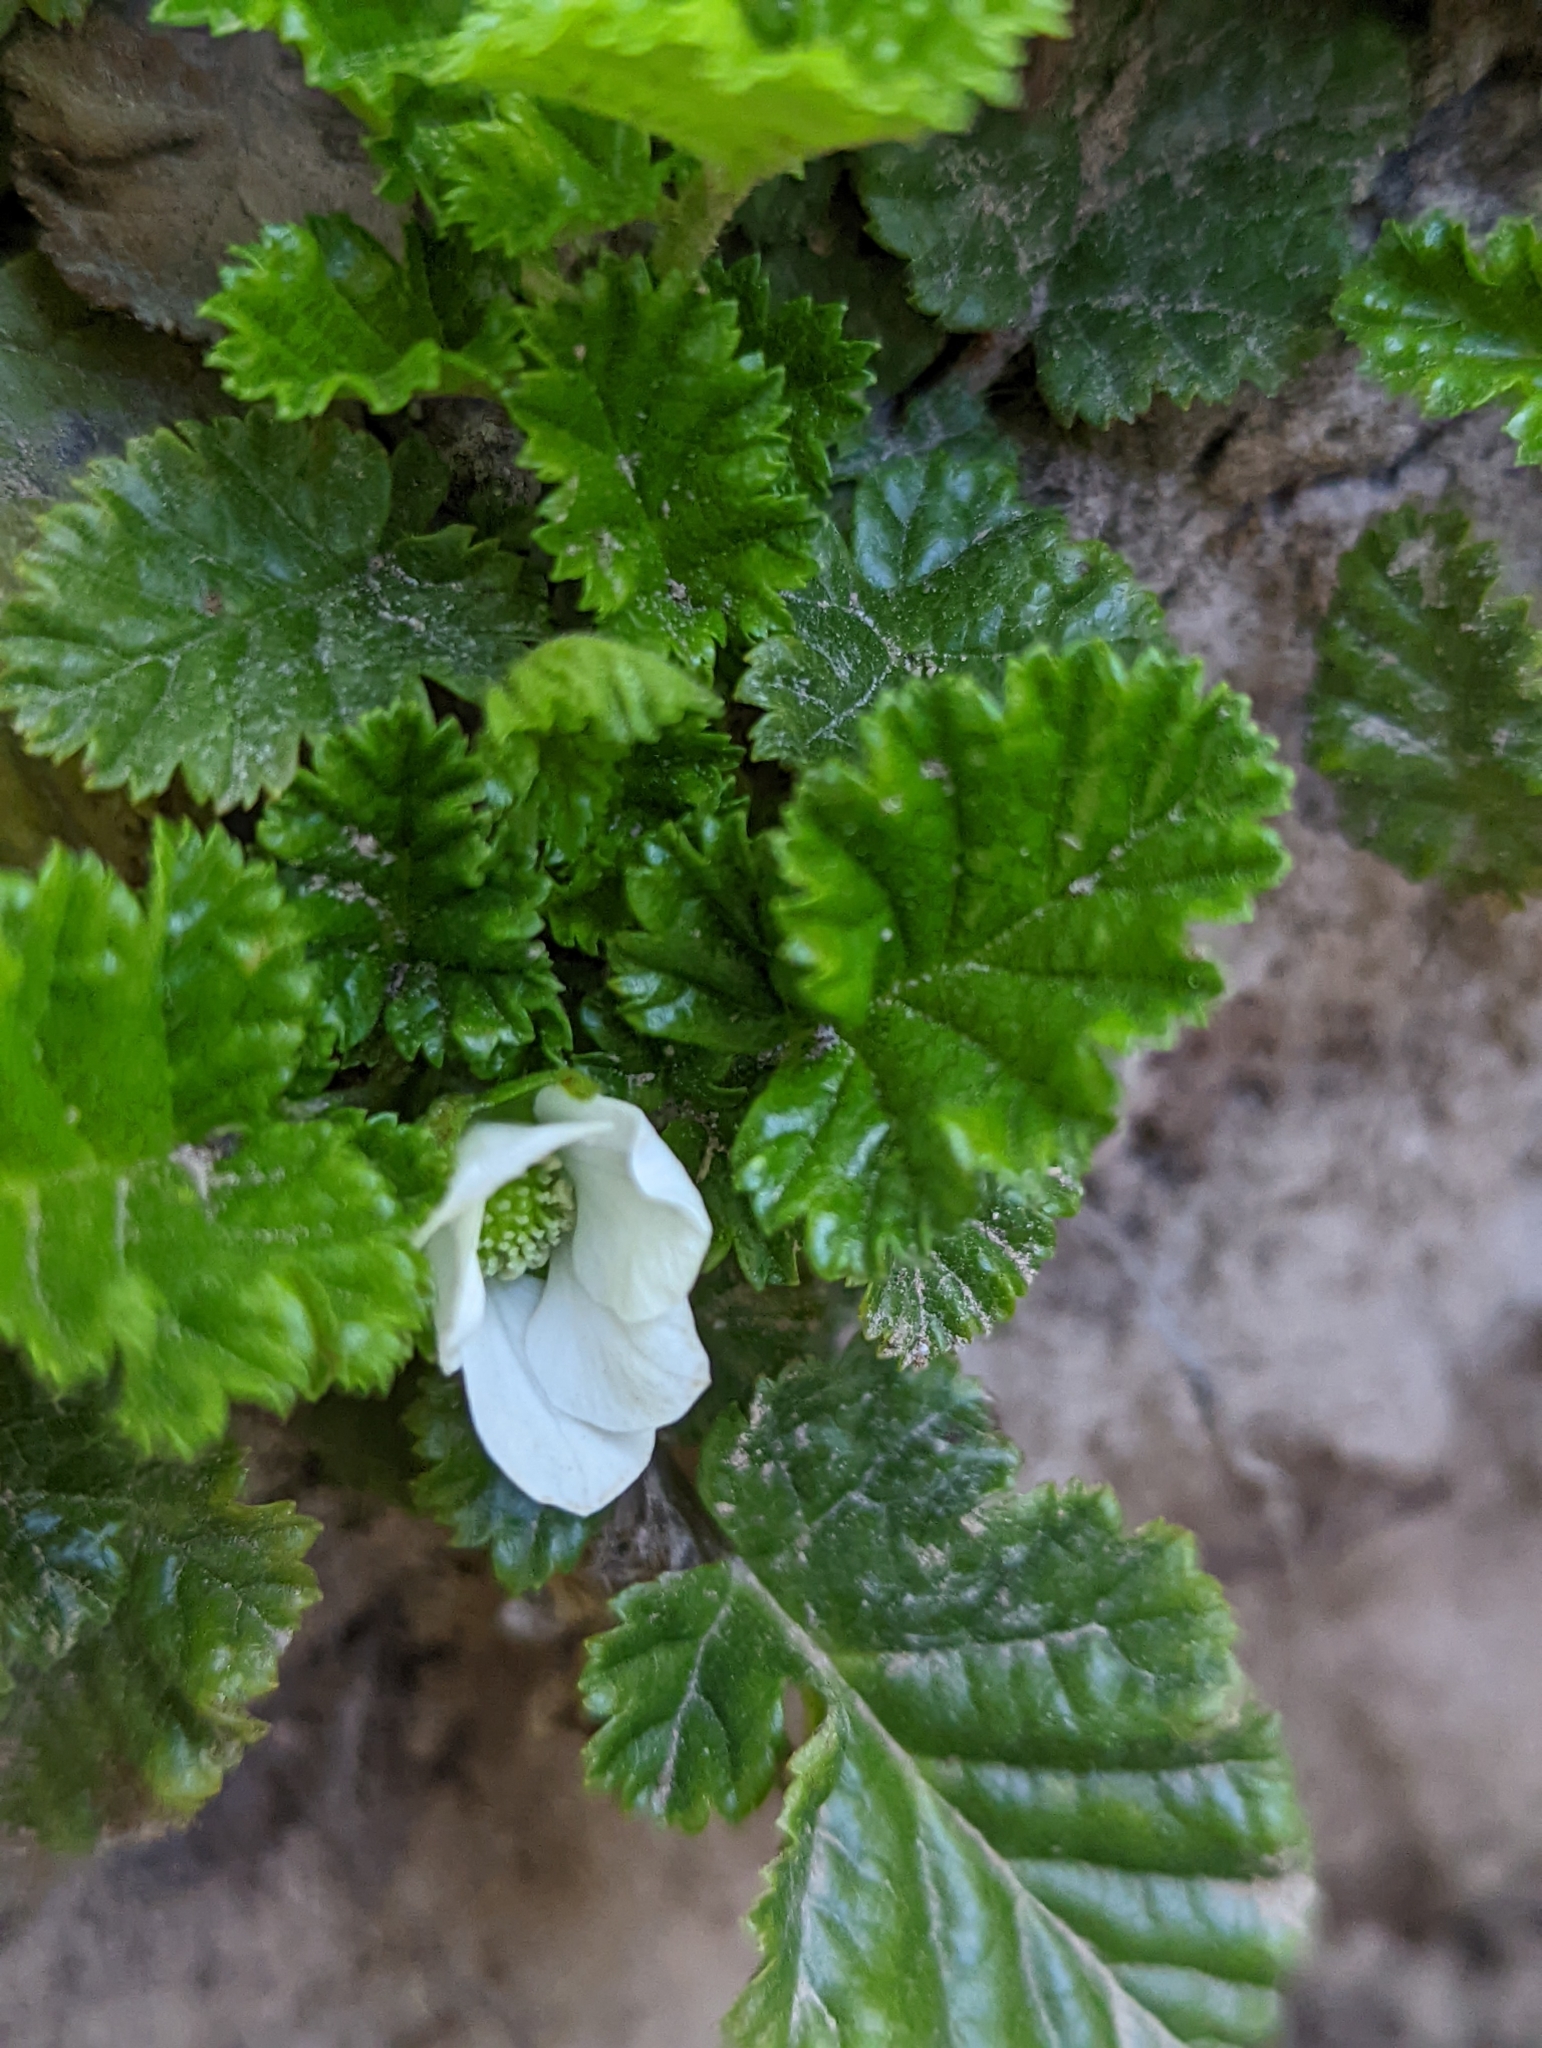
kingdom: Plantae
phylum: Tracheophyta
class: Magnoliopsida
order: Rosales
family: Rosaceae
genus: Rubus
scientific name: Rubus geoides
